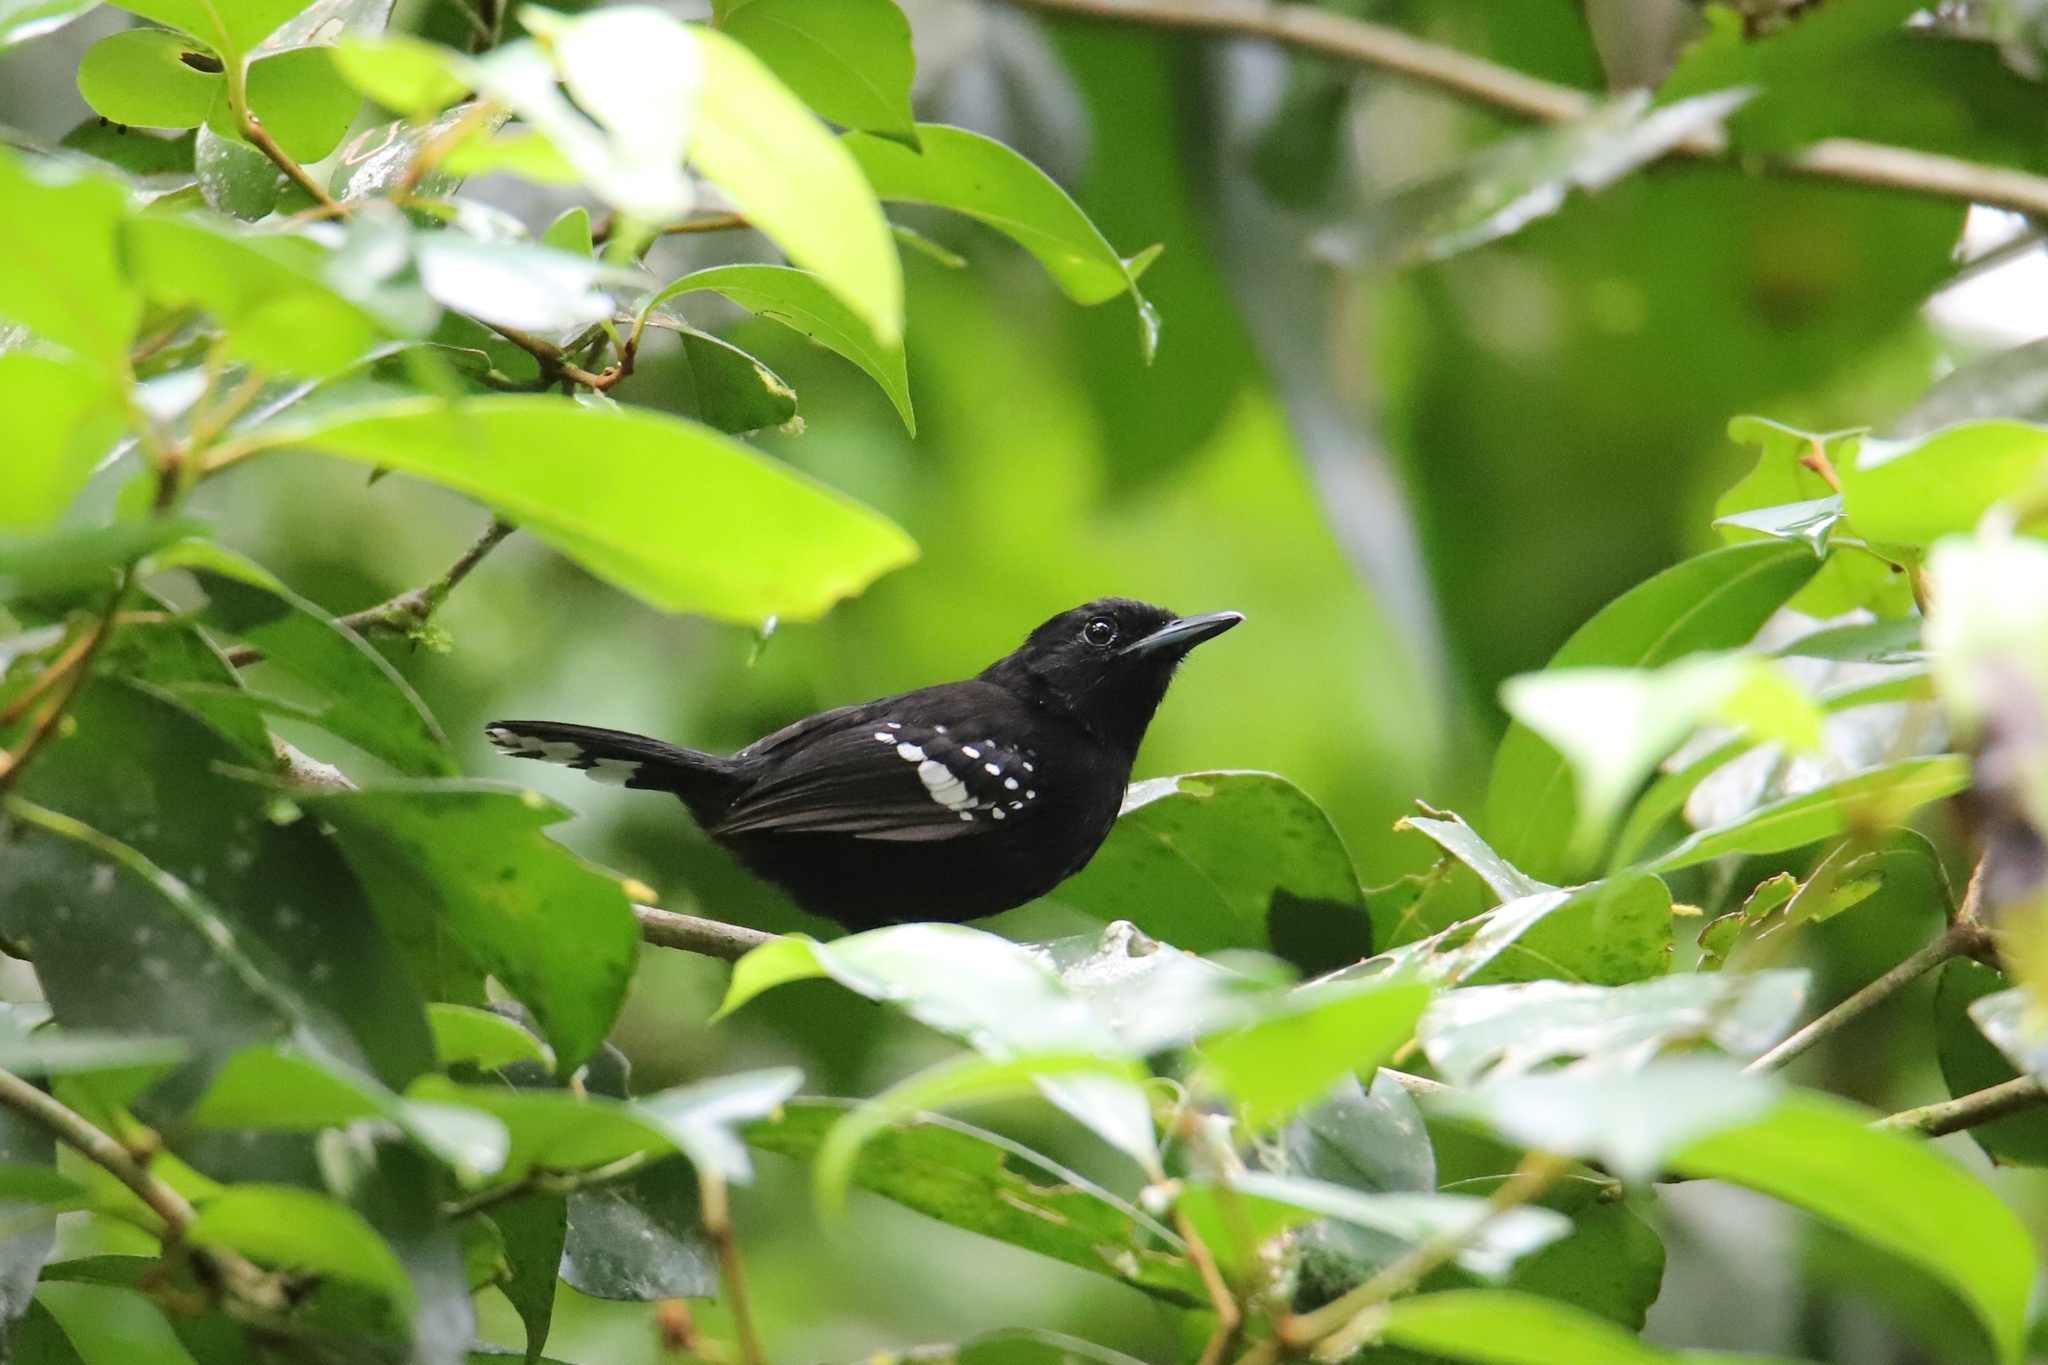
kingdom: Animalia
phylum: Chordata
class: Aves
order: Passeriformes
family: Thamnophilidae
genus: Microrhopias
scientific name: Microrhopias quixensis
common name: Dot-winged antwren
